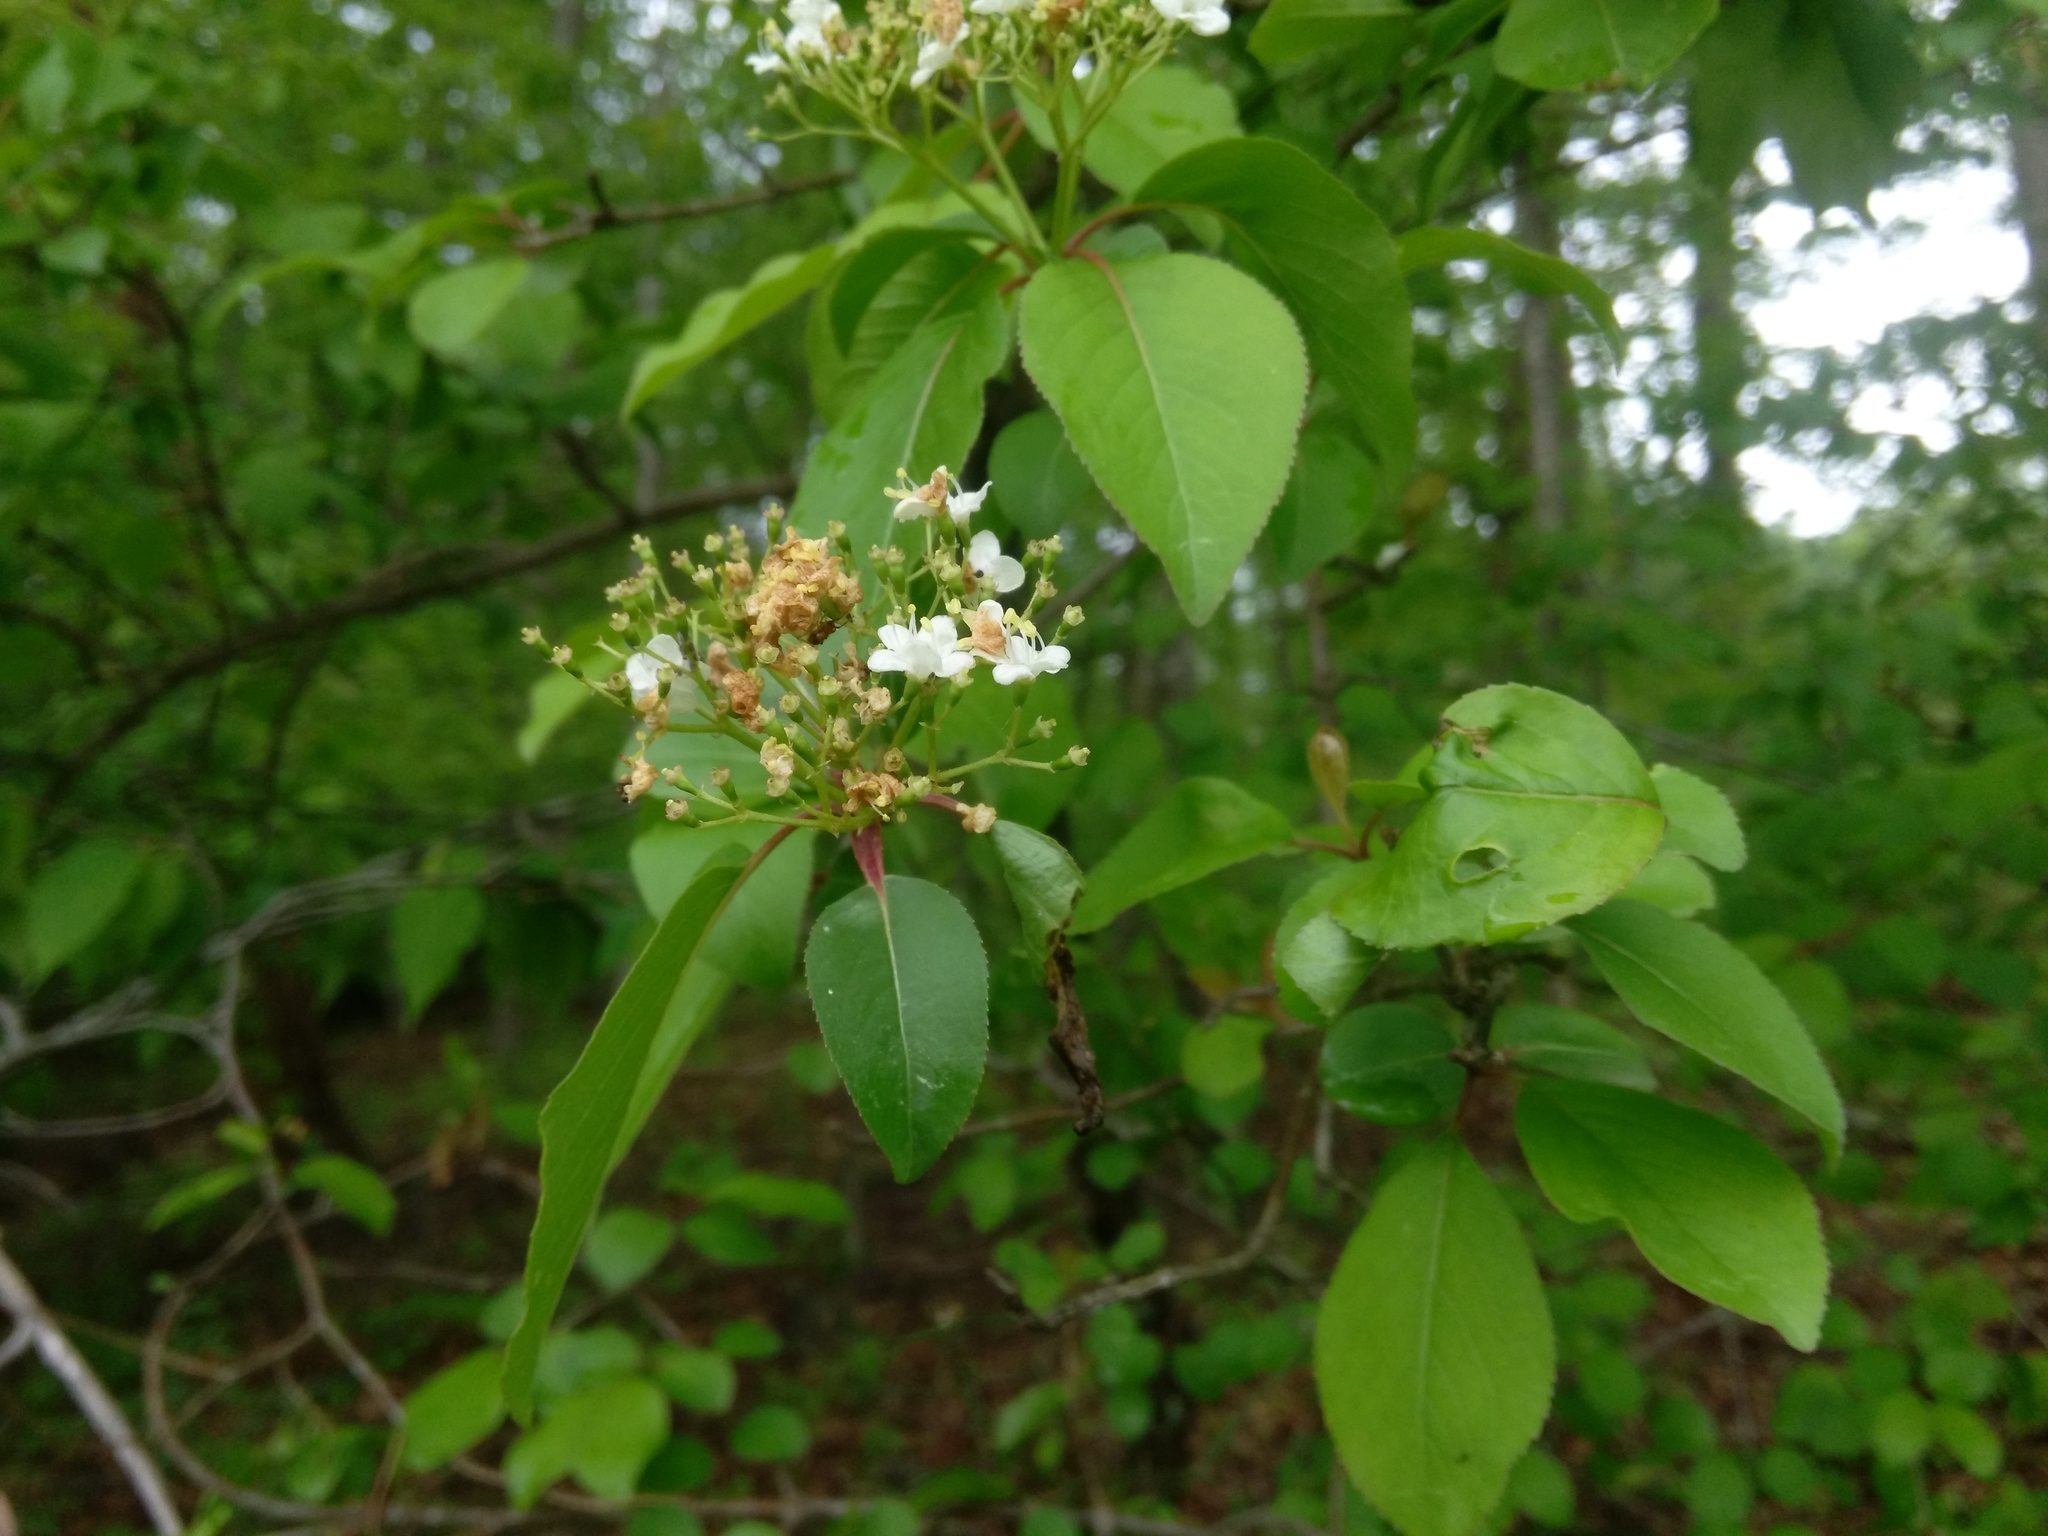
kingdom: Plantae
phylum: Tracheophyta
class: Magnoliopsida
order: Dipsacales
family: Viburnaceae
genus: Viburnum
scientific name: Viburnum prunifolium
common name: Black haw
